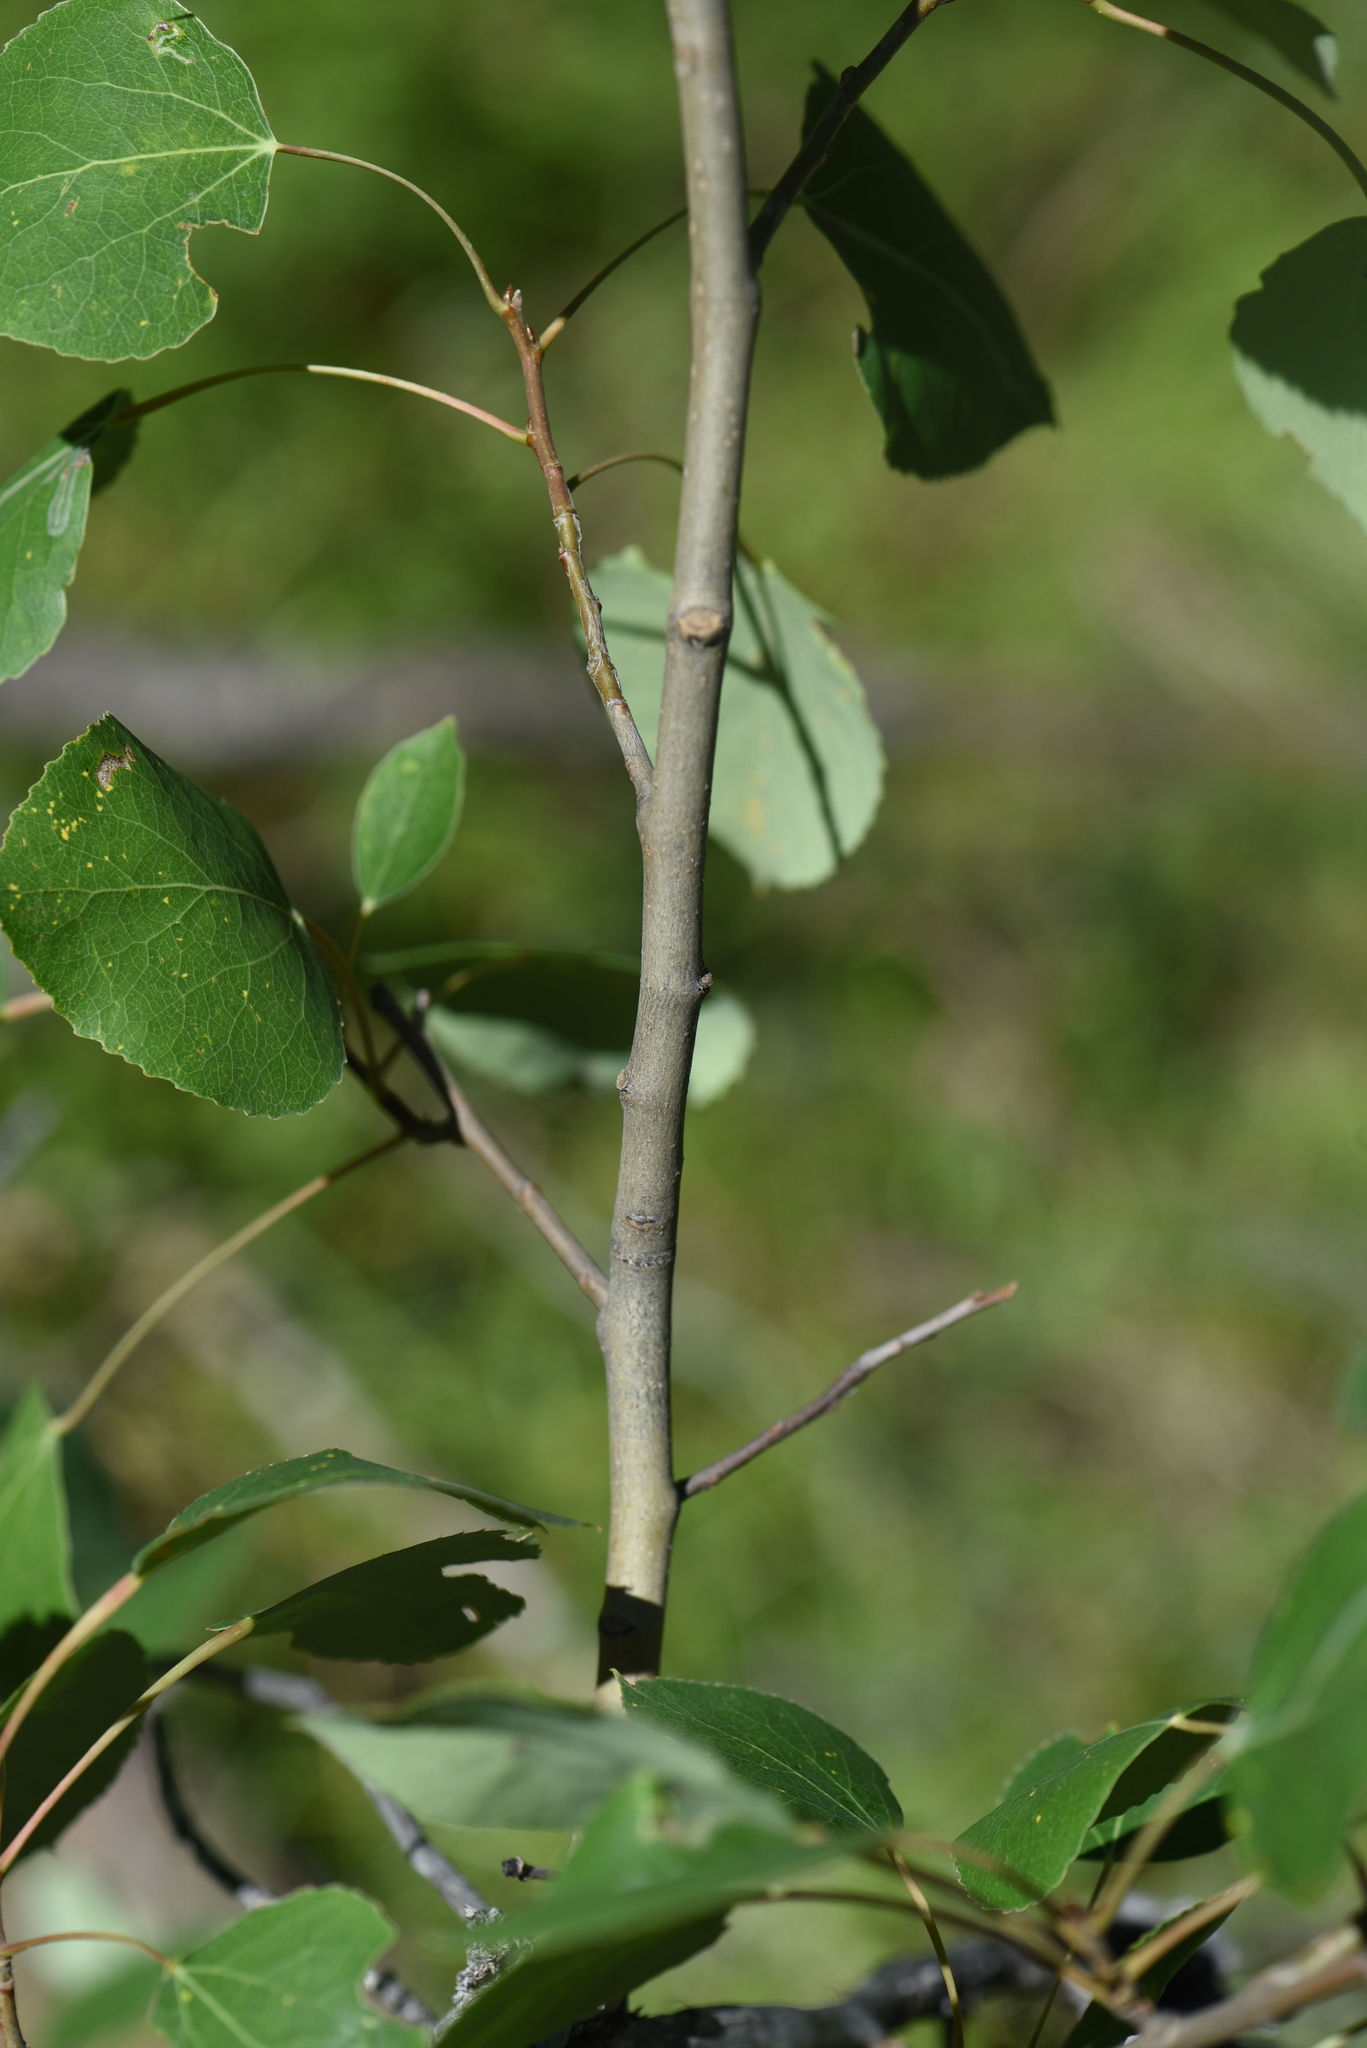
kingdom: Plantae
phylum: Tracheophyta
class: Magnoliopsida
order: Malpighiales
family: Salicaceae
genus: Populus
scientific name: Populus tremuloides
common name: Quaking aspen
